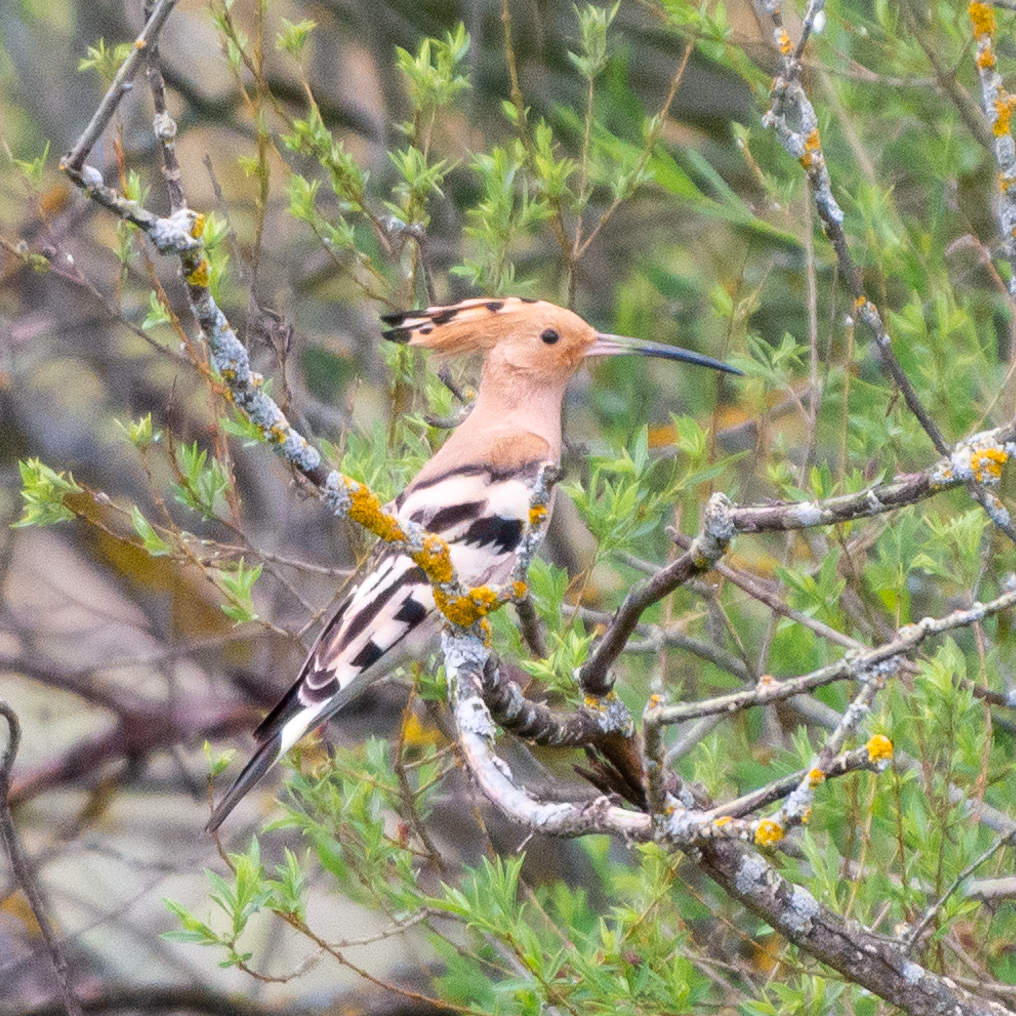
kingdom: Animalia
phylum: Chordata
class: Aves
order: Bucerotiformes
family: Upupidae
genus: Upupa
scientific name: Upupa epops
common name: Eurasian hoopoe
